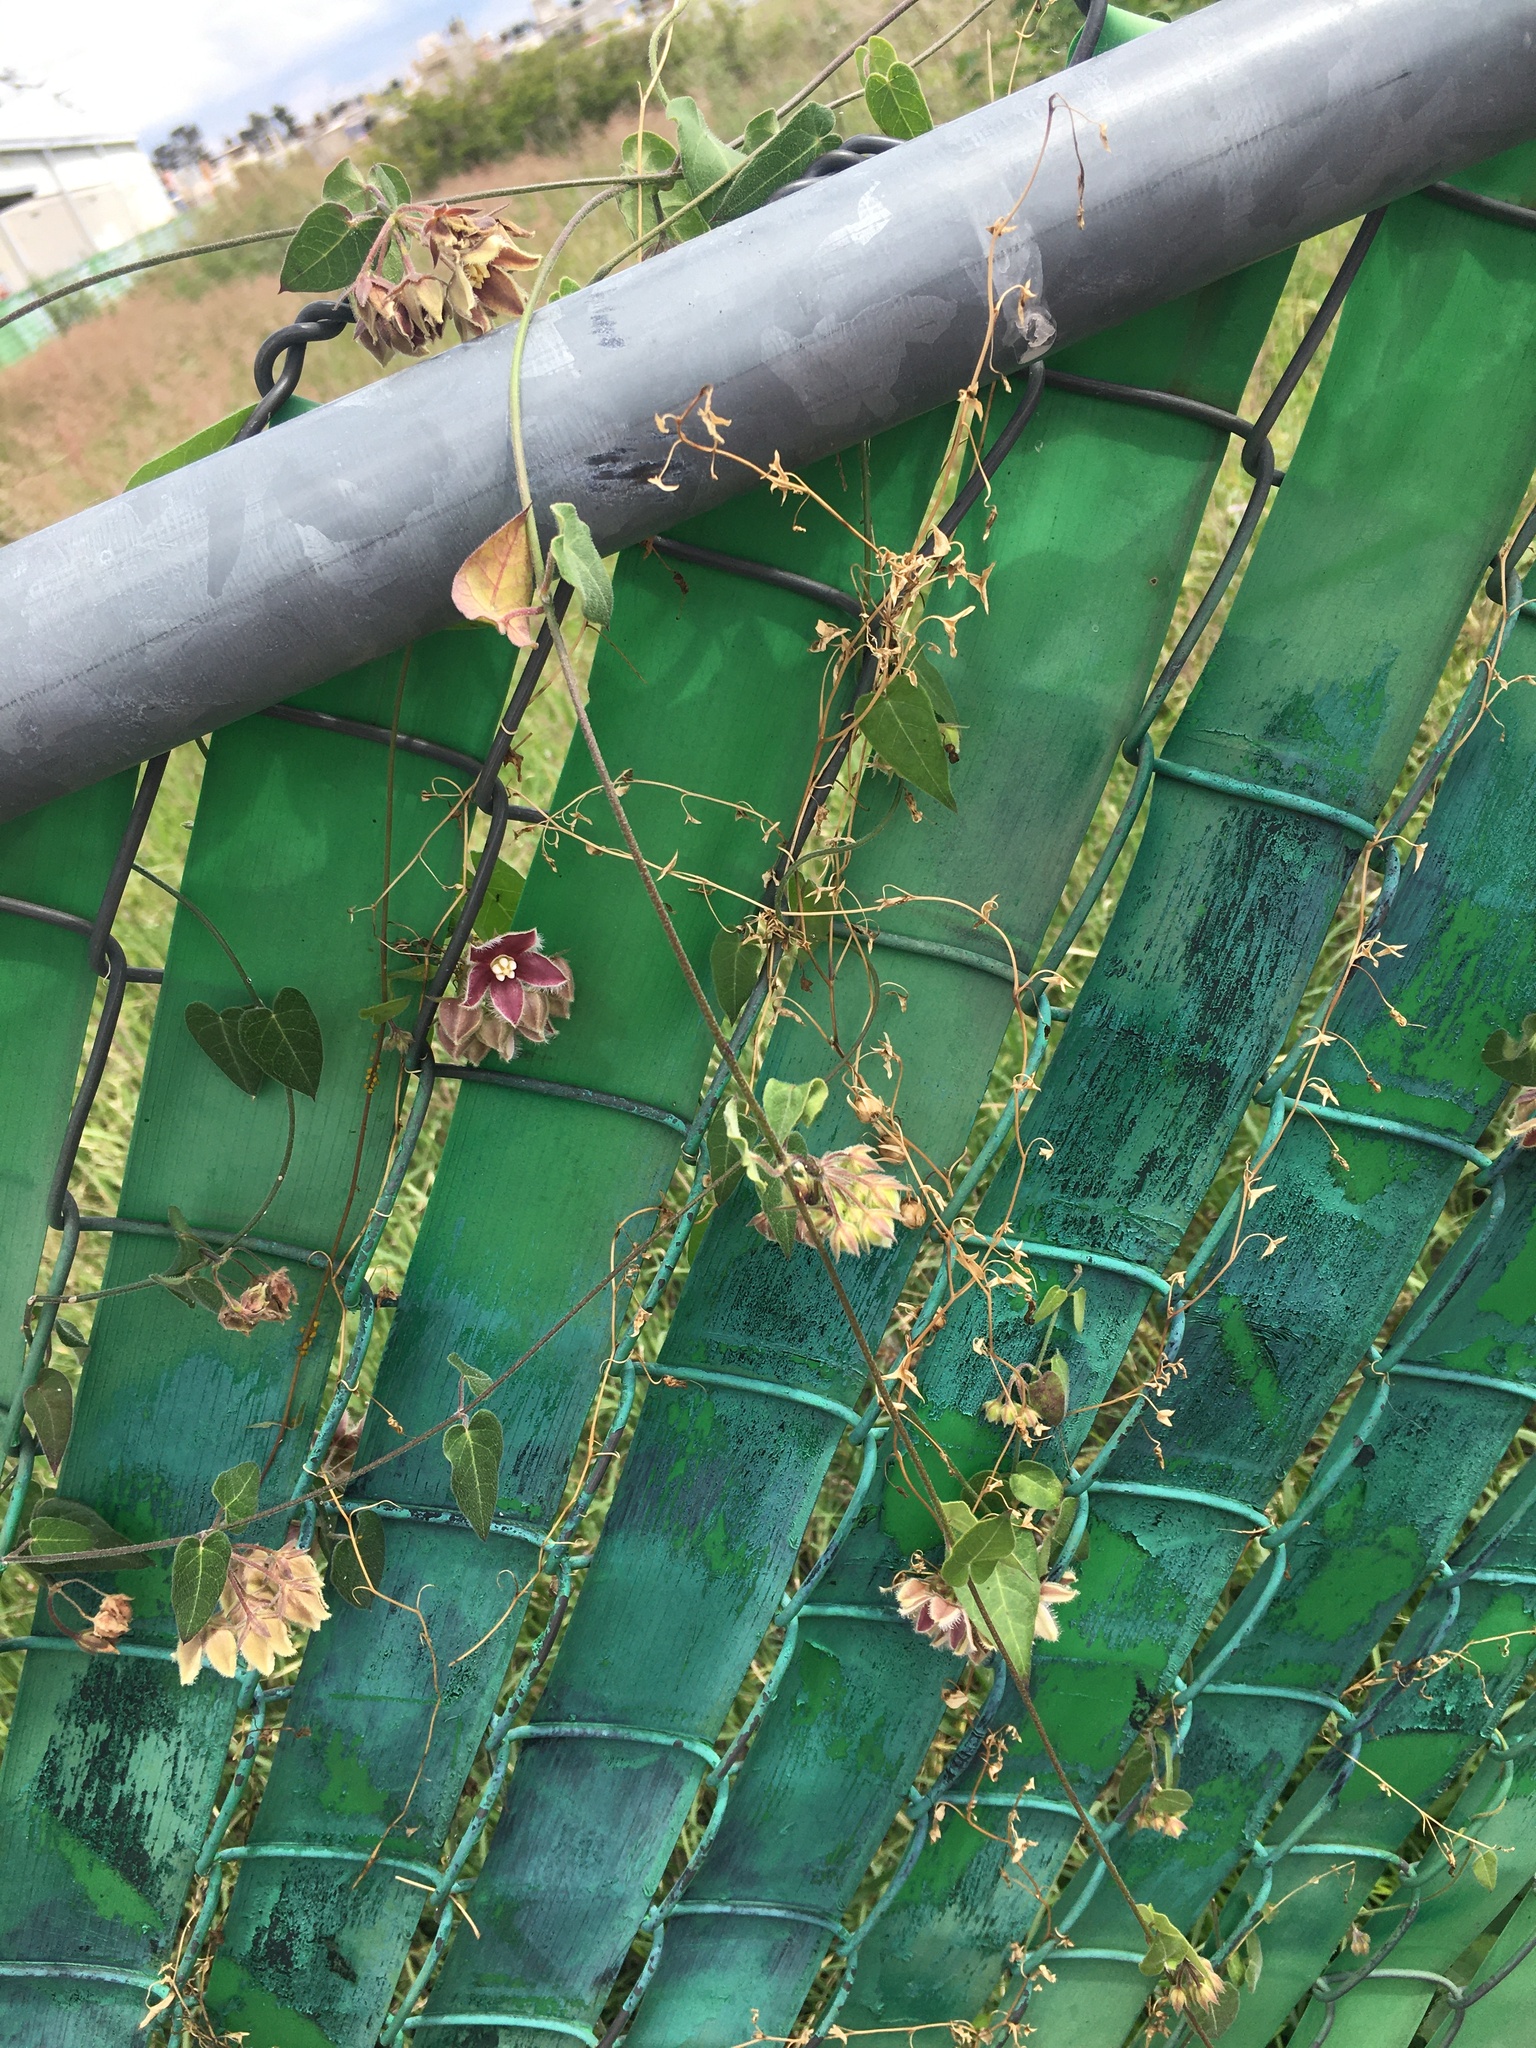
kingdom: Plantae
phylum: Tracheophyta
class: Magnoliopsida
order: Gentianales
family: Apocynaceae
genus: Funastrum
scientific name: Funastrum elegans
